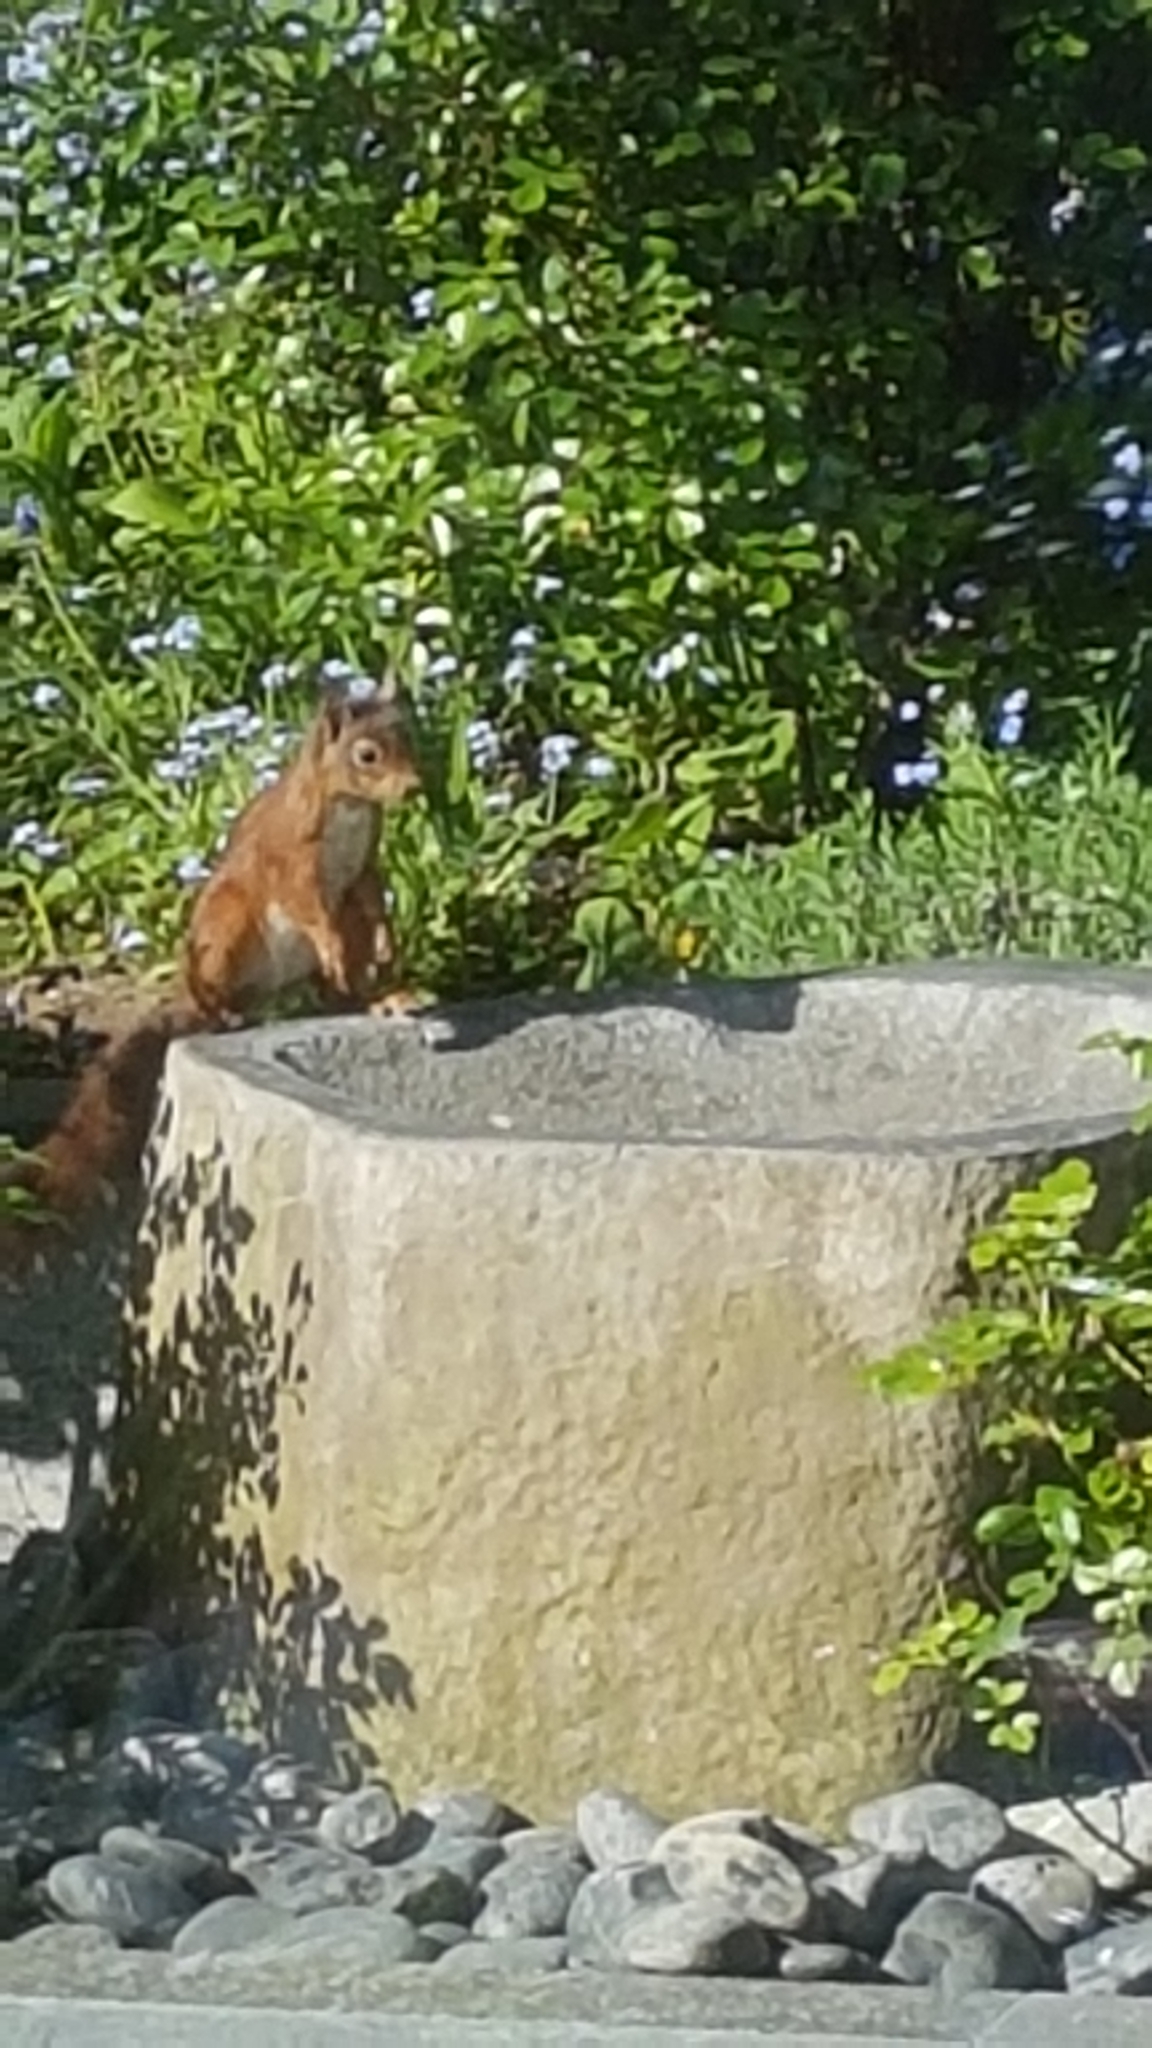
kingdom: Animalia
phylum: Chordata
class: Mammalia
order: Rodentia
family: Sciuridae
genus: Sciurus
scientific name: Sciurus vulgaris
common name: Eurasian red squirrel
